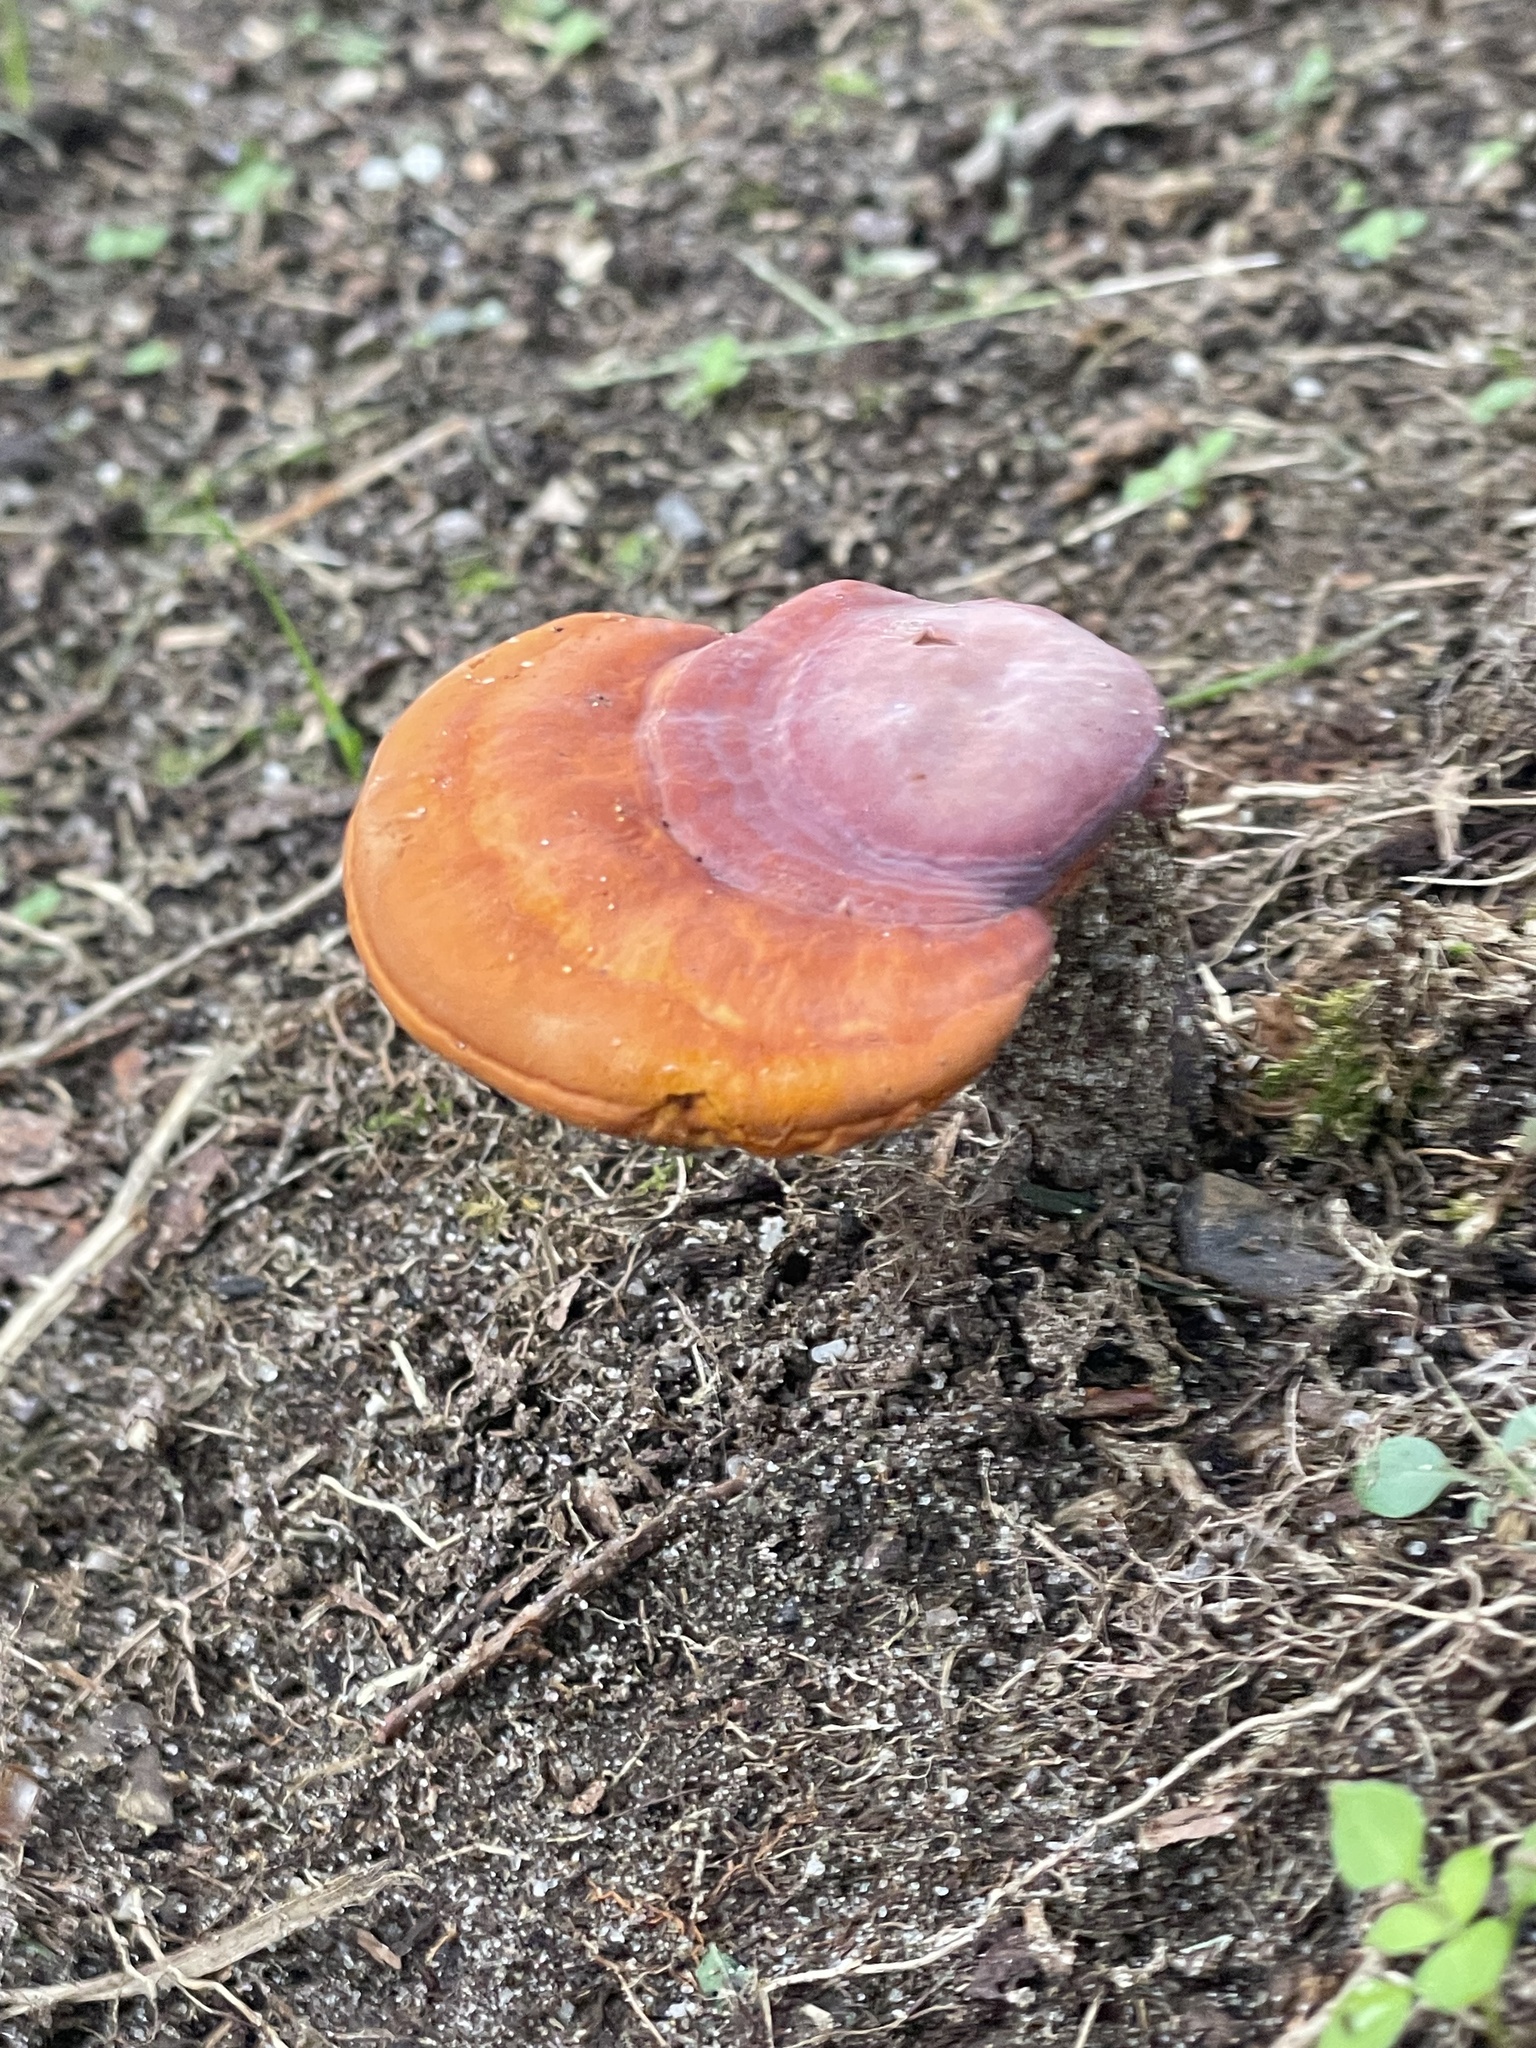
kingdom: Fungi
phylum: Basidiomycota
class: Agaricomycetes
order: Polyporales
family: Polyporaceae
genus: Ganoderma
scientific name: Ganoderma curtisii
